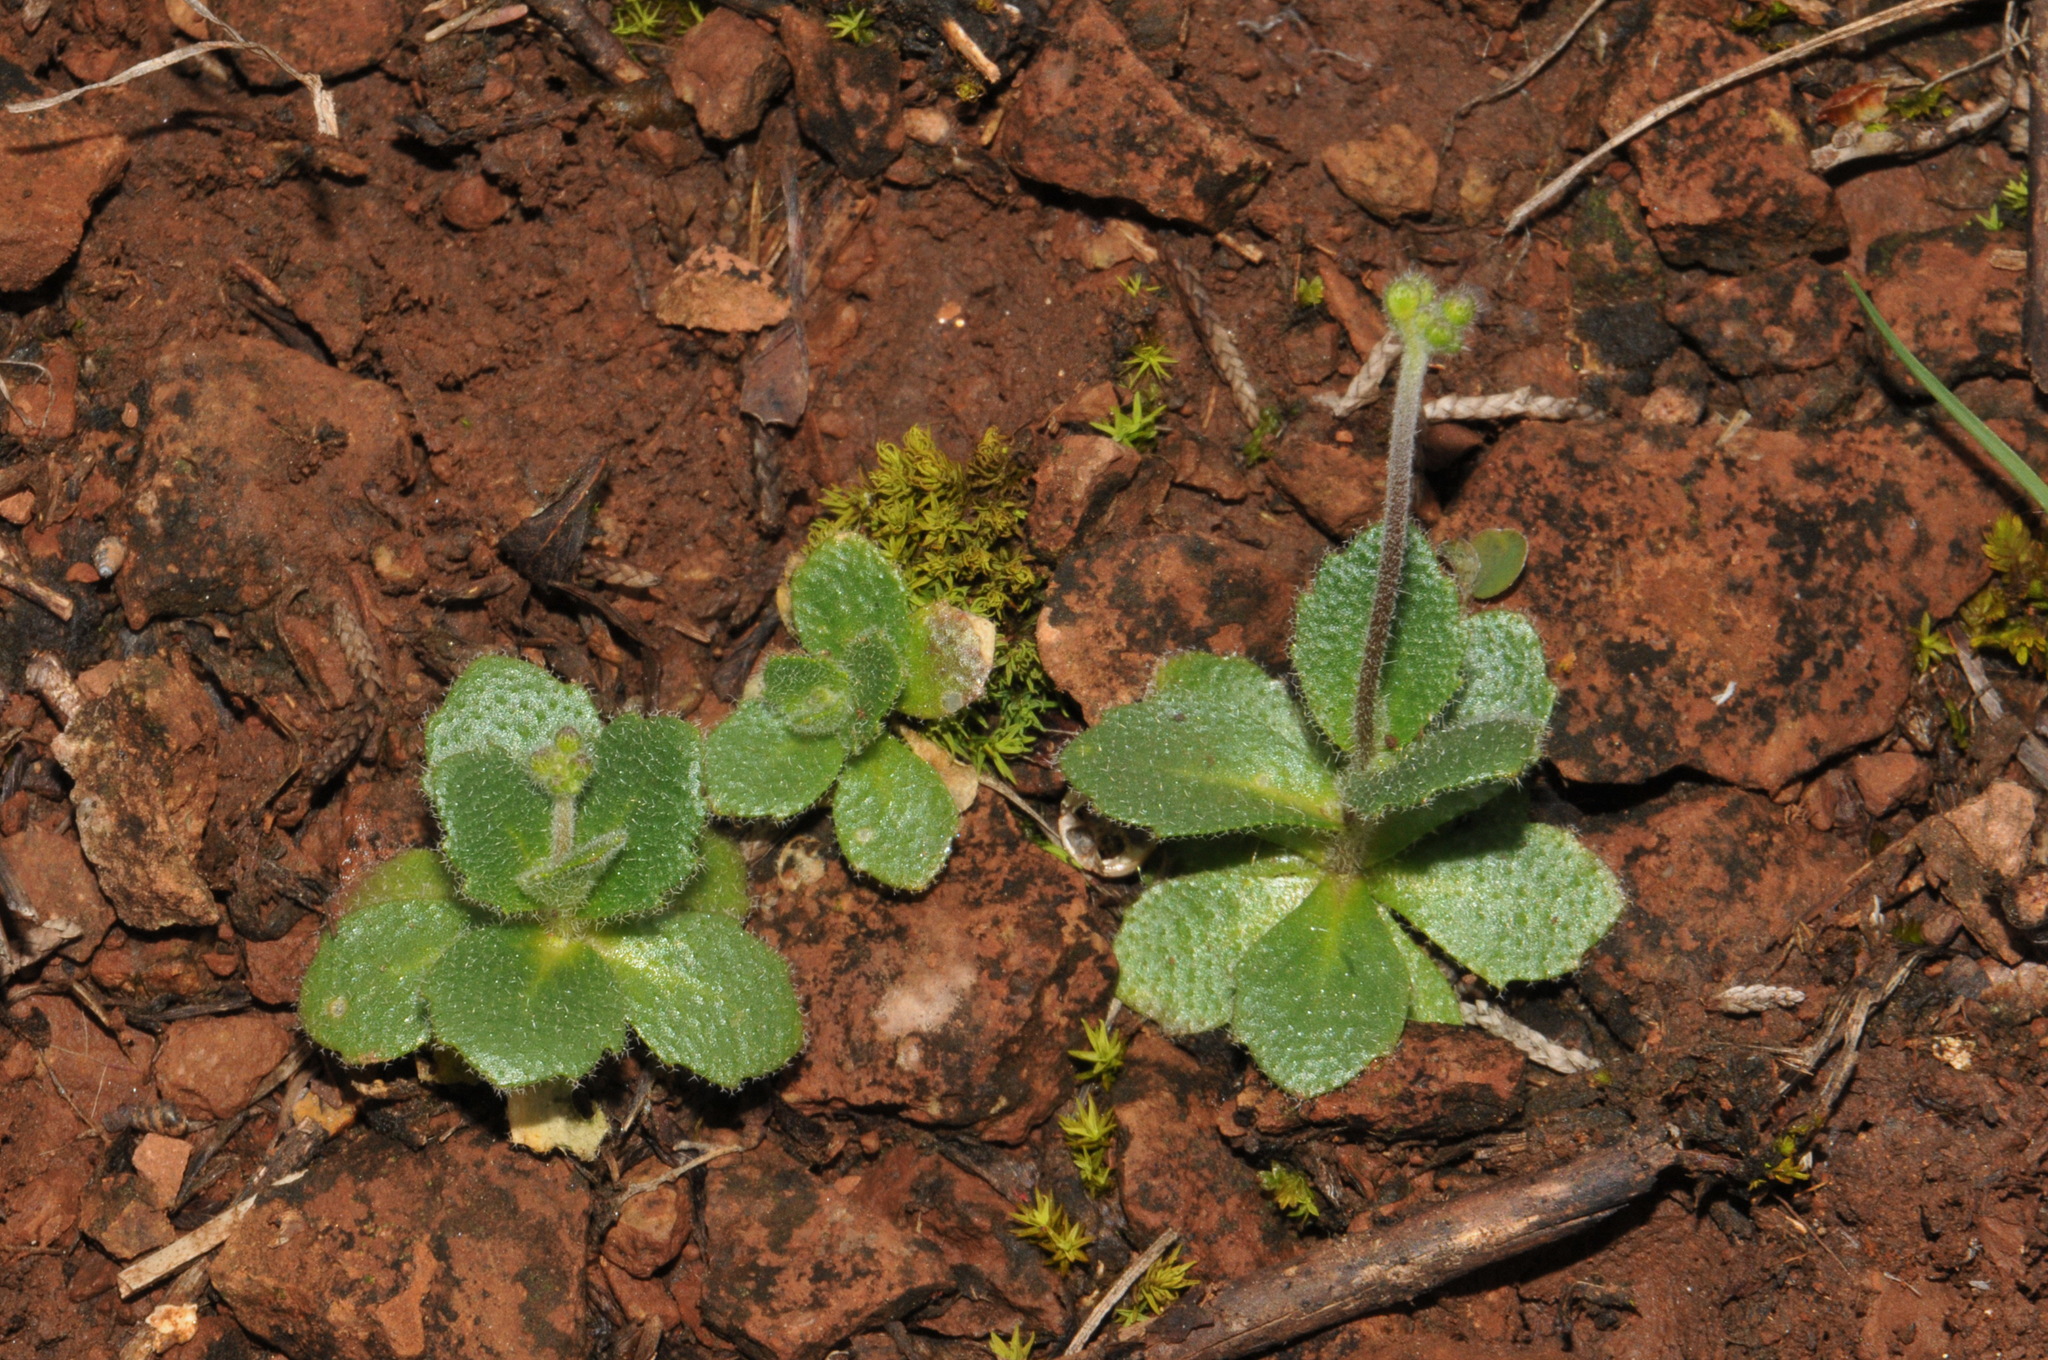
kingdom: Plantae
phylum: Tracheophyta
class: Magnoliopsida
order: Brassicales
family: Brassicaceae
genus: Tomostima
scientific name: Tomostima cuneifolia
